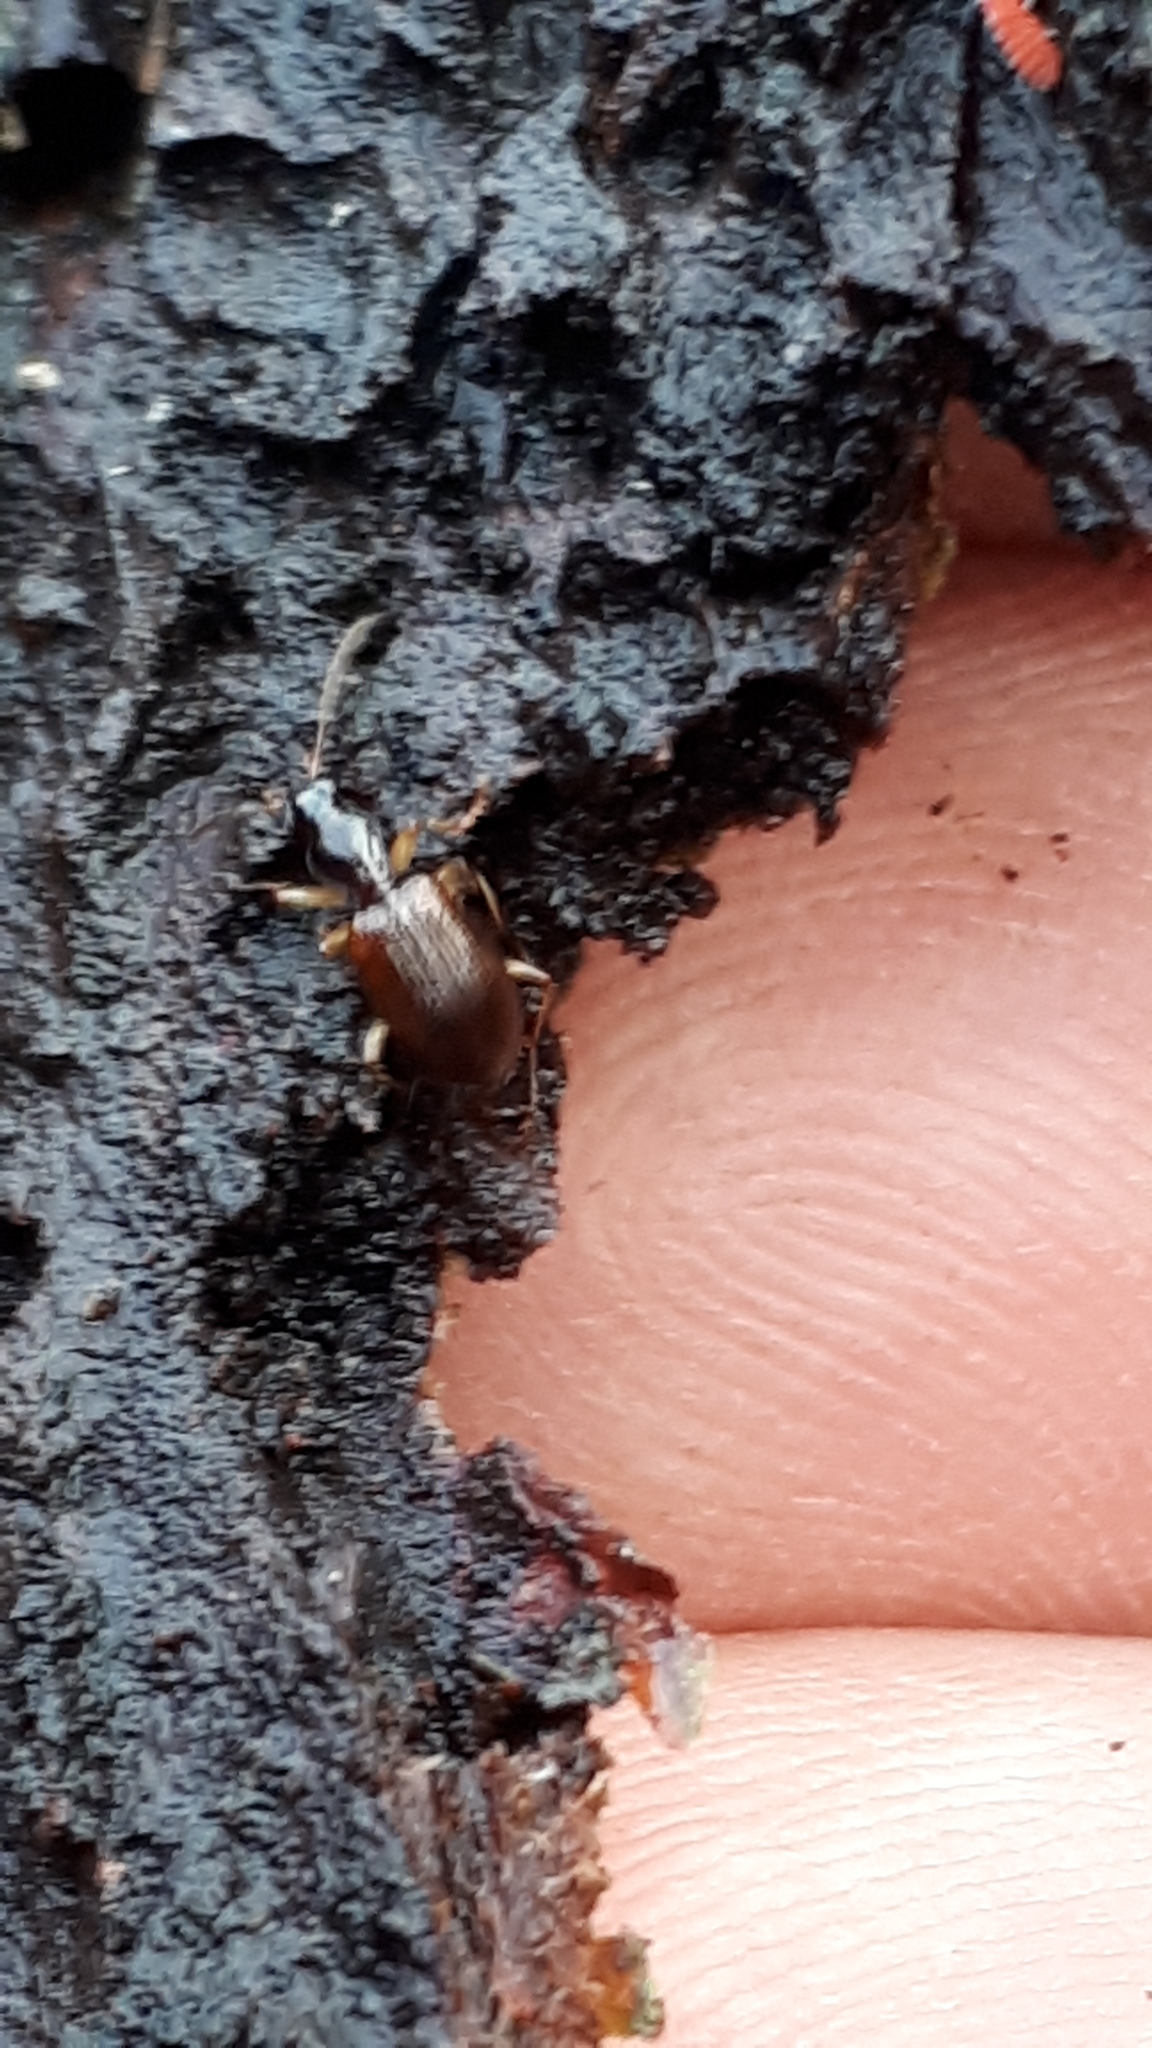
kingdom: Animalia
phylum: Arthropoda
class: Insecta
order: Coleoptera
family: Carabidae
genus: Oxypselaphus
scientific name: Oxypselaphus obscurus
